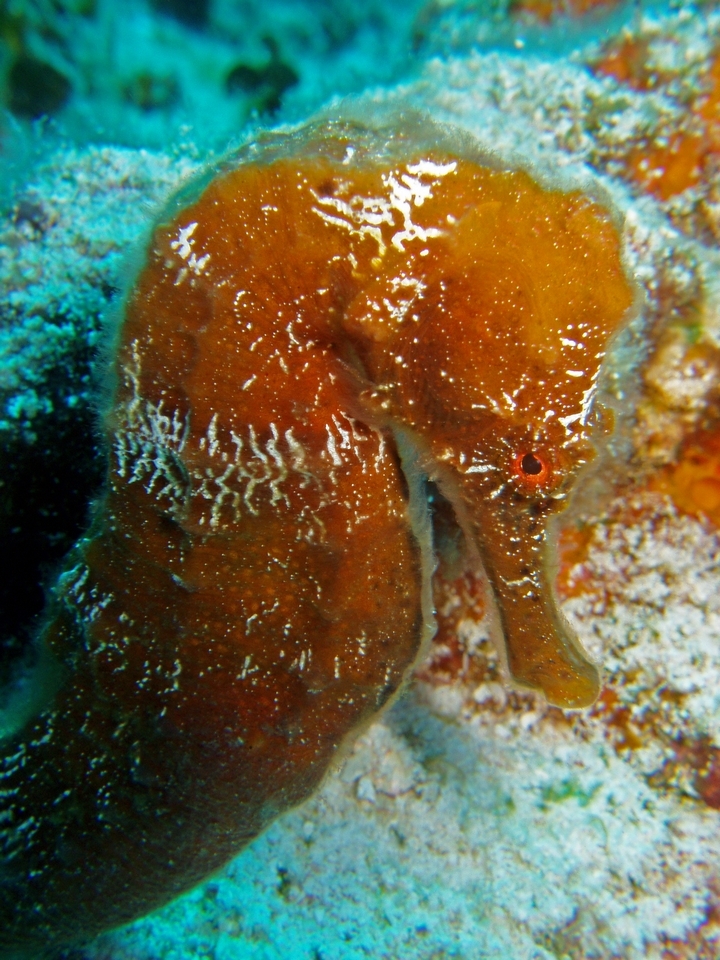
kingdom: Animalia
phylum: Chordata
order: Syngnathiformes
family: Syngnathidae
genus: Hippocampus
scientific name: Hippocampus reidi
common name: Slender seahorse
